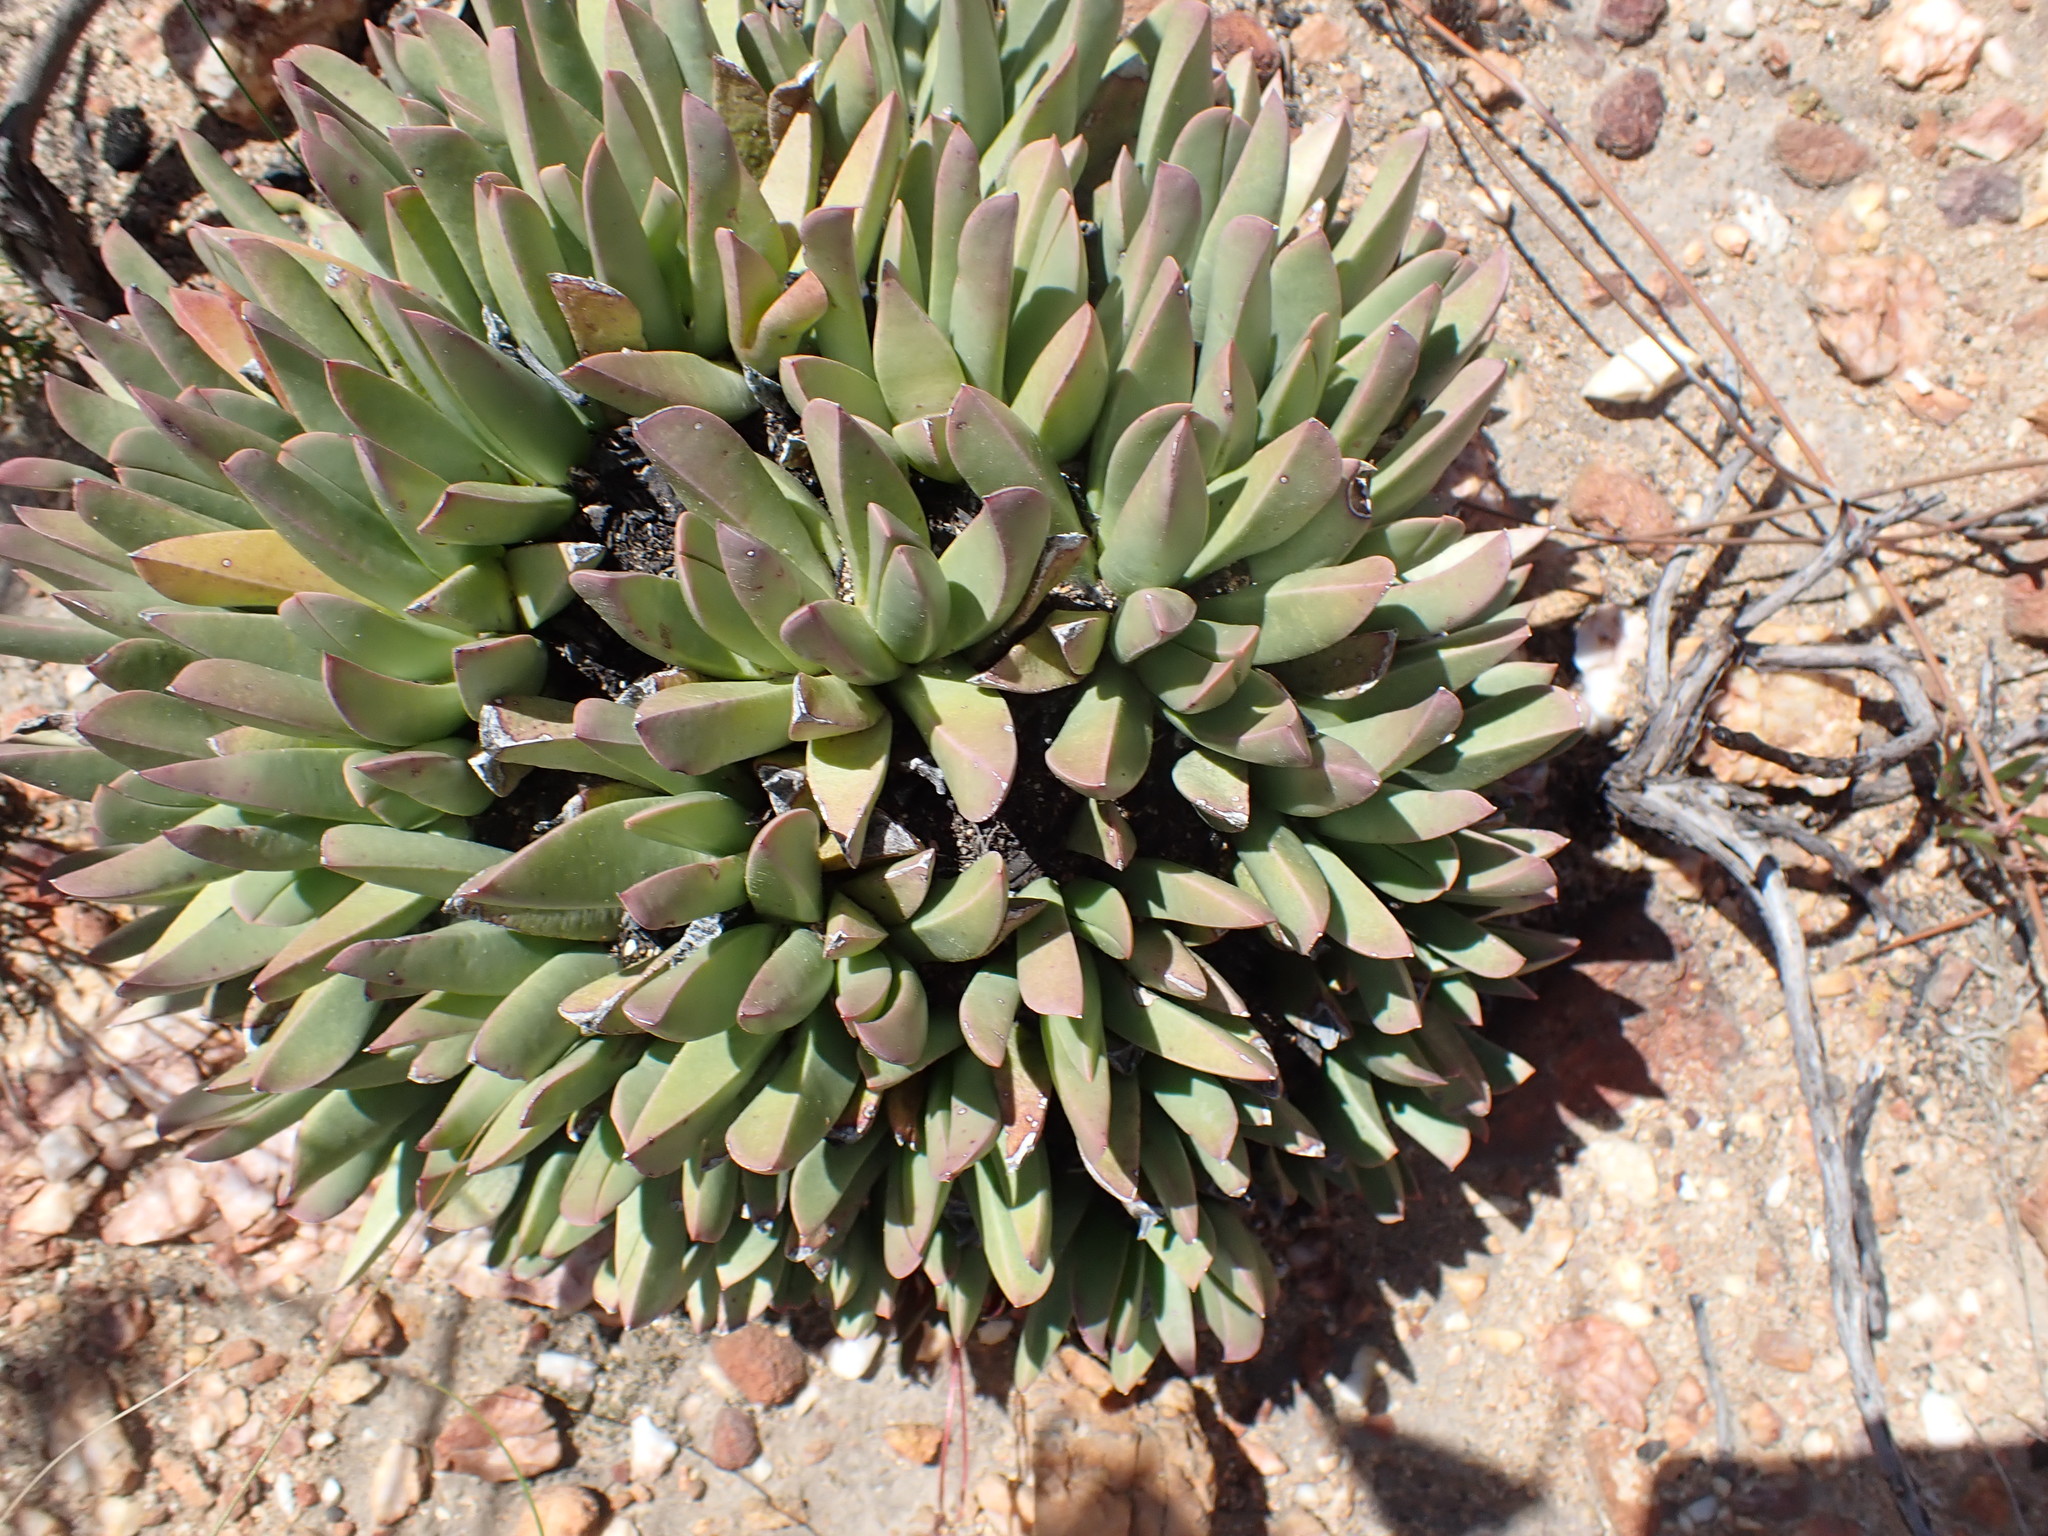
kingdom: Plantae
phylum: Tracheophyta
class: Magnoliopsida
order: Caryophyllales
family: Aizoaceae
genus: Machairophyllum
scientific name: Machairophyllum albidum
